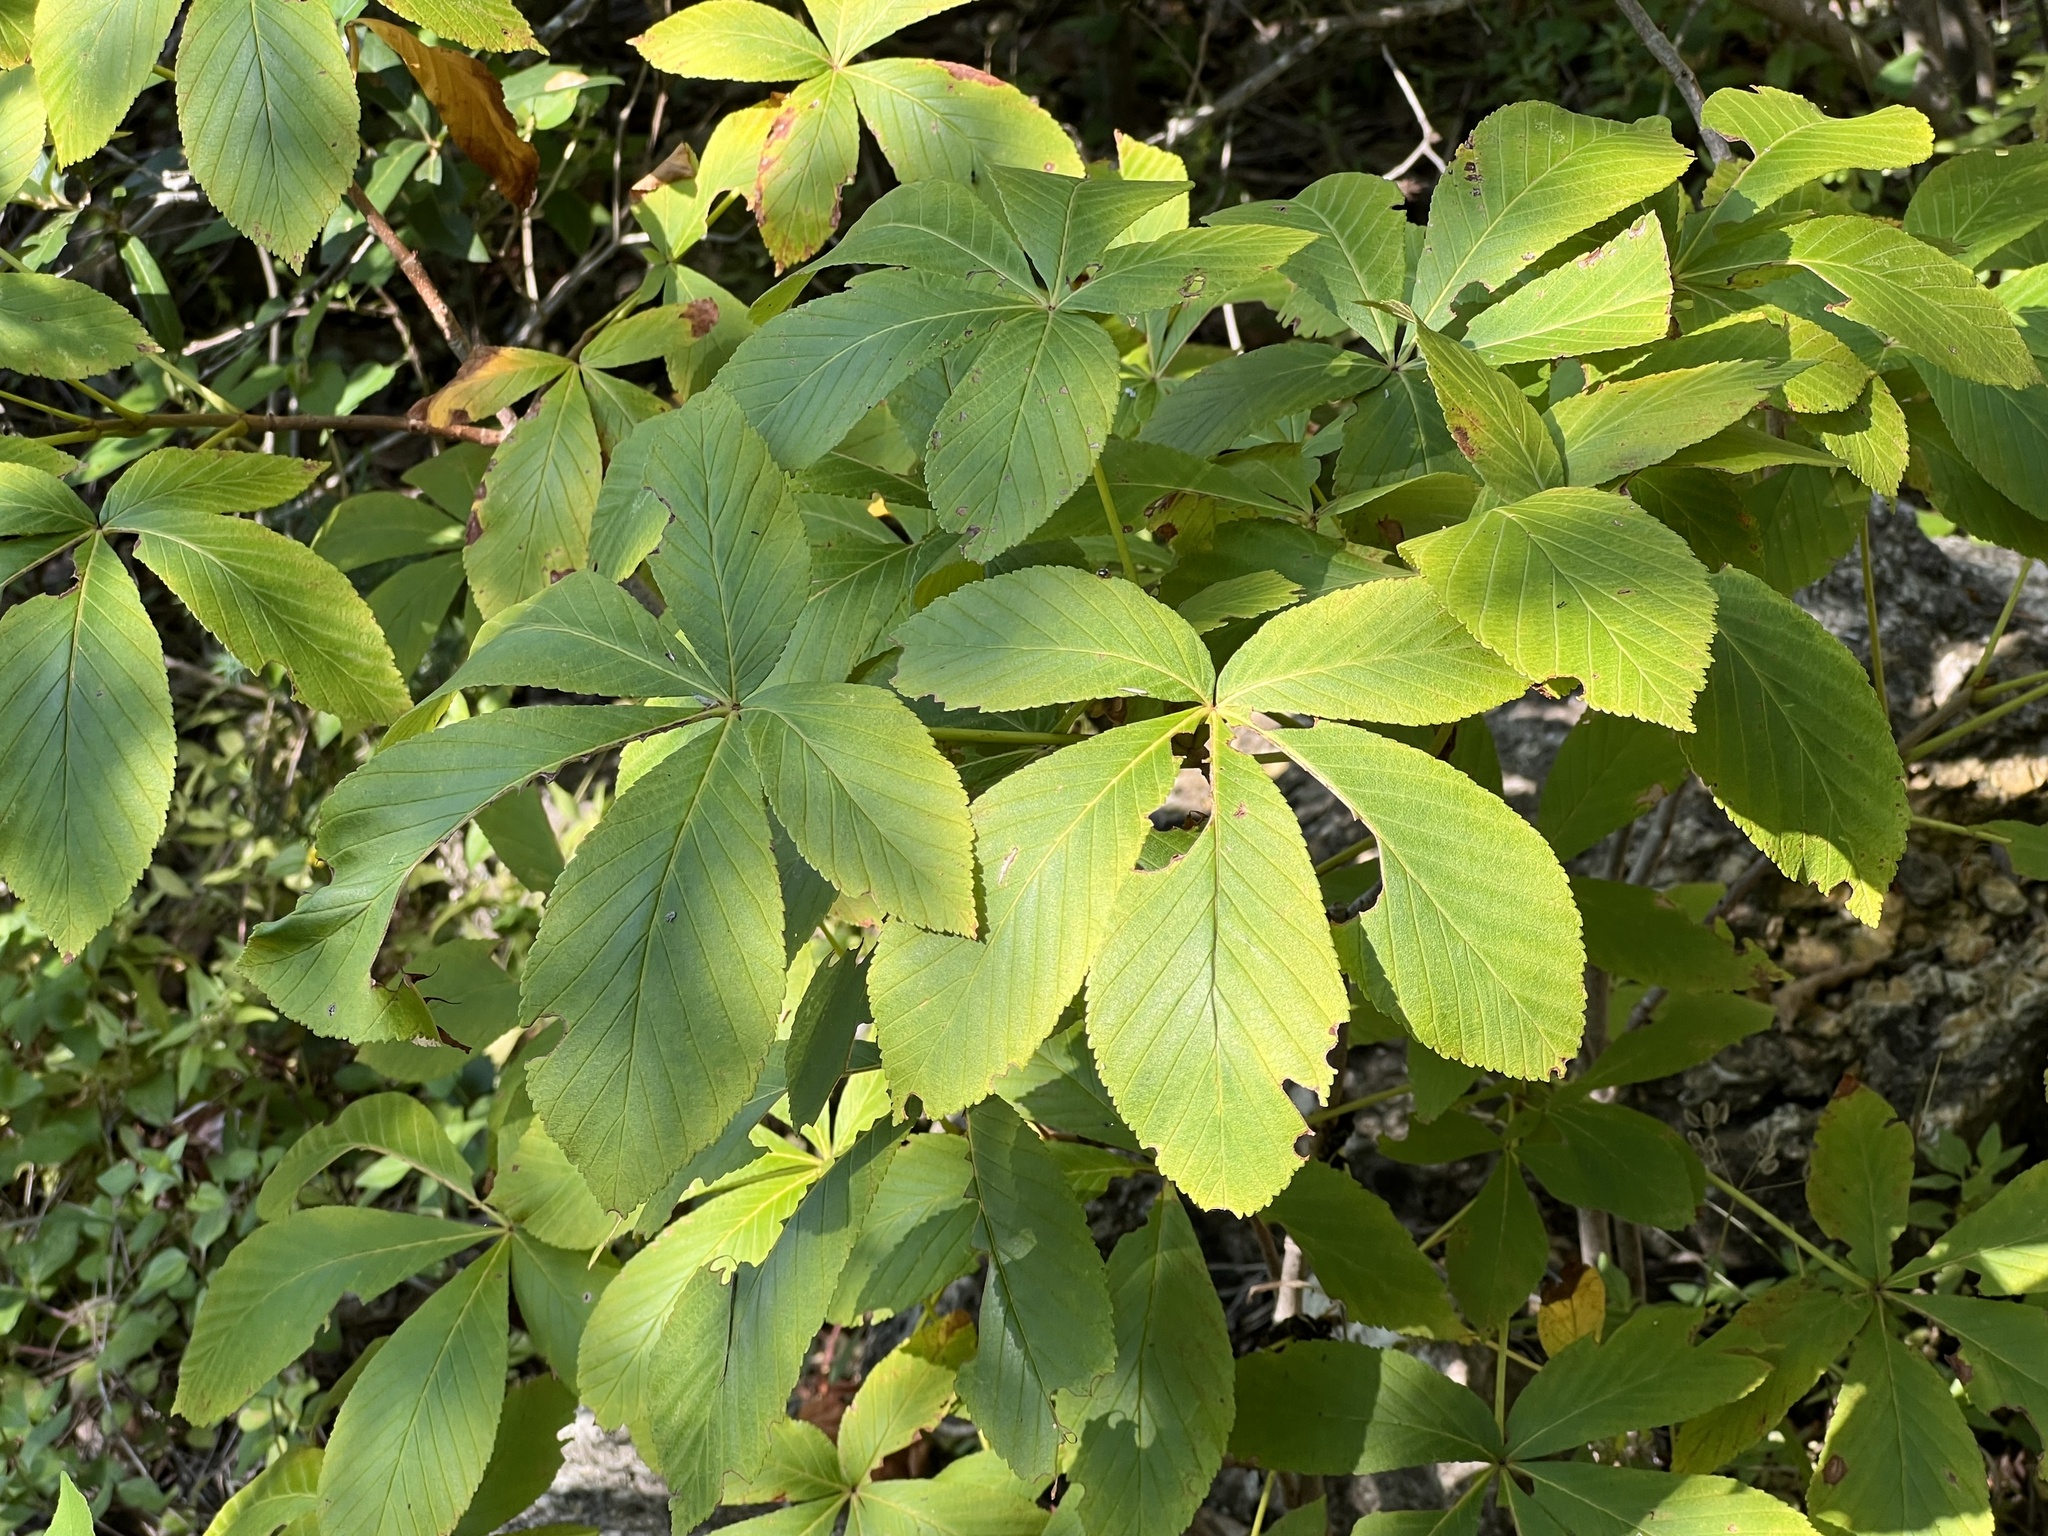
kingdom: Plantae
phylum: Tracheophyta
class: Magnoliopsida
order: Sapindales
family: Sapindaceae
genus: Aesculus
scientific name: Aesculus pavia
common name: Red buckeye
